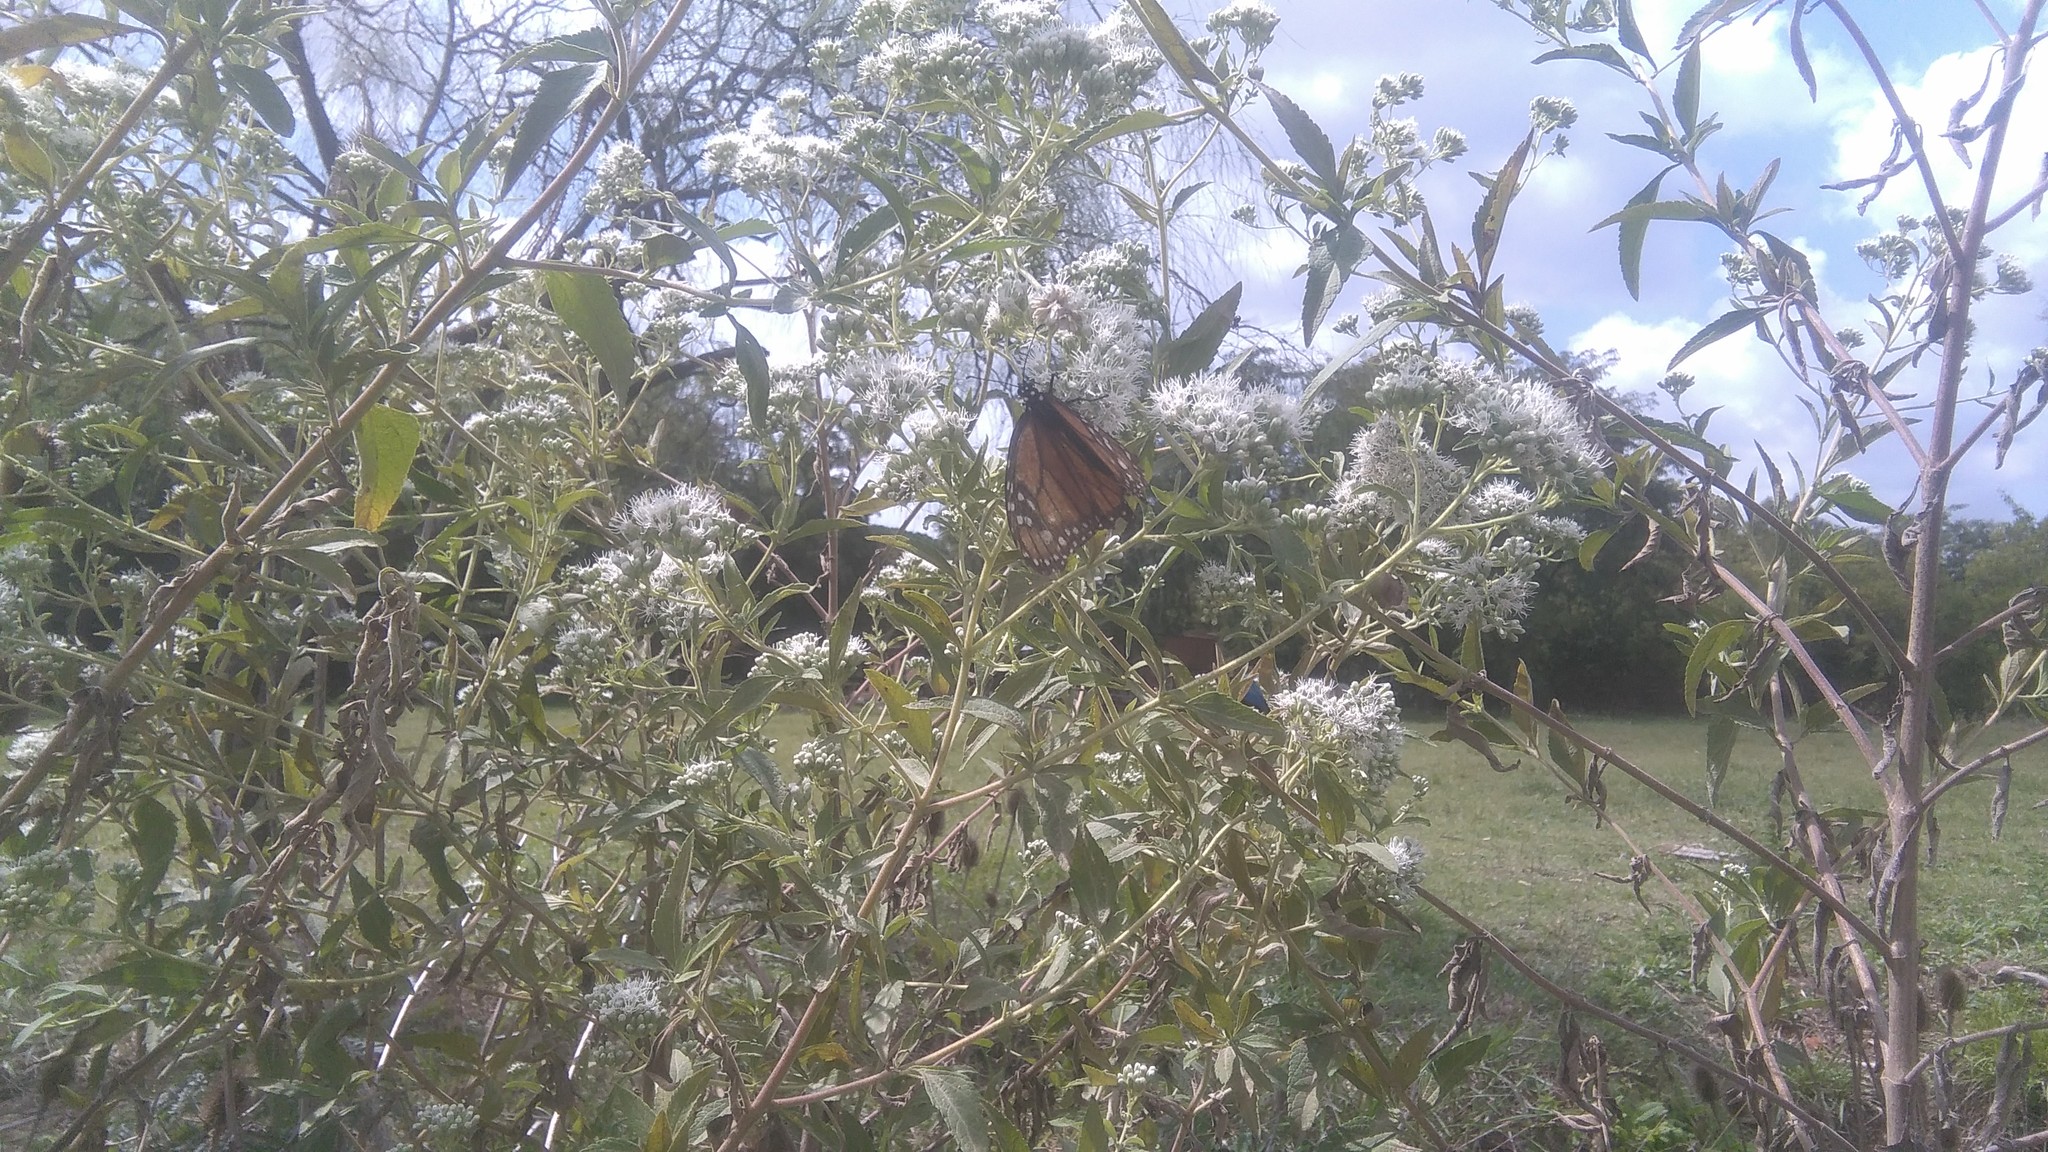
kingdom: Animalia
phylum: Arthropoda
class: Insecta
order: Lepidoptera
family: Nymphalidae
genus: Danaus
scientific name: Danaus erippus
